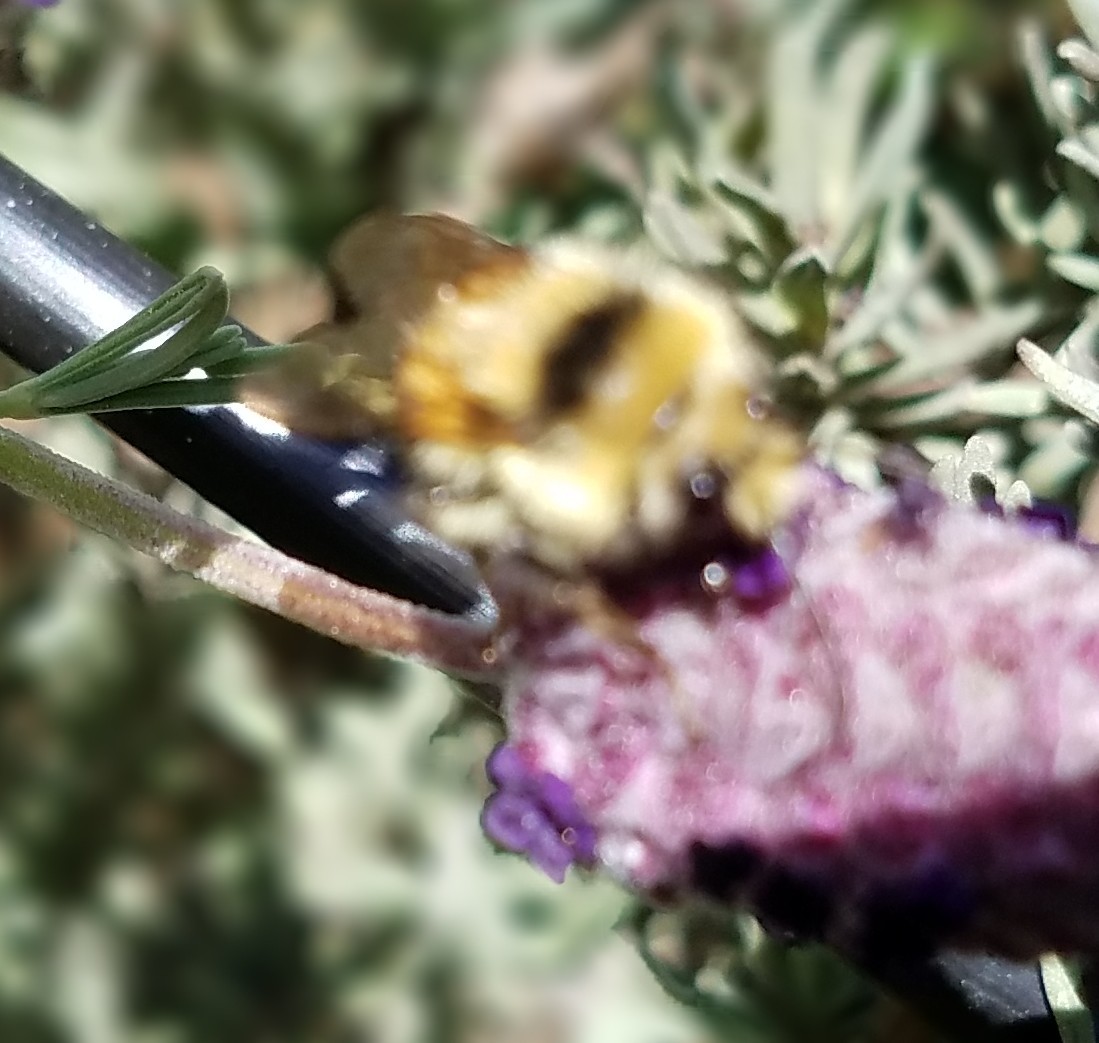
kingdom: Animalia
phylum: Arthropoda
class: Insecta
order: Hymenoptera
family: Apidae
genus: Bombus
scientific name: Bombus melanopygus
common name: Black tail bumble bee
